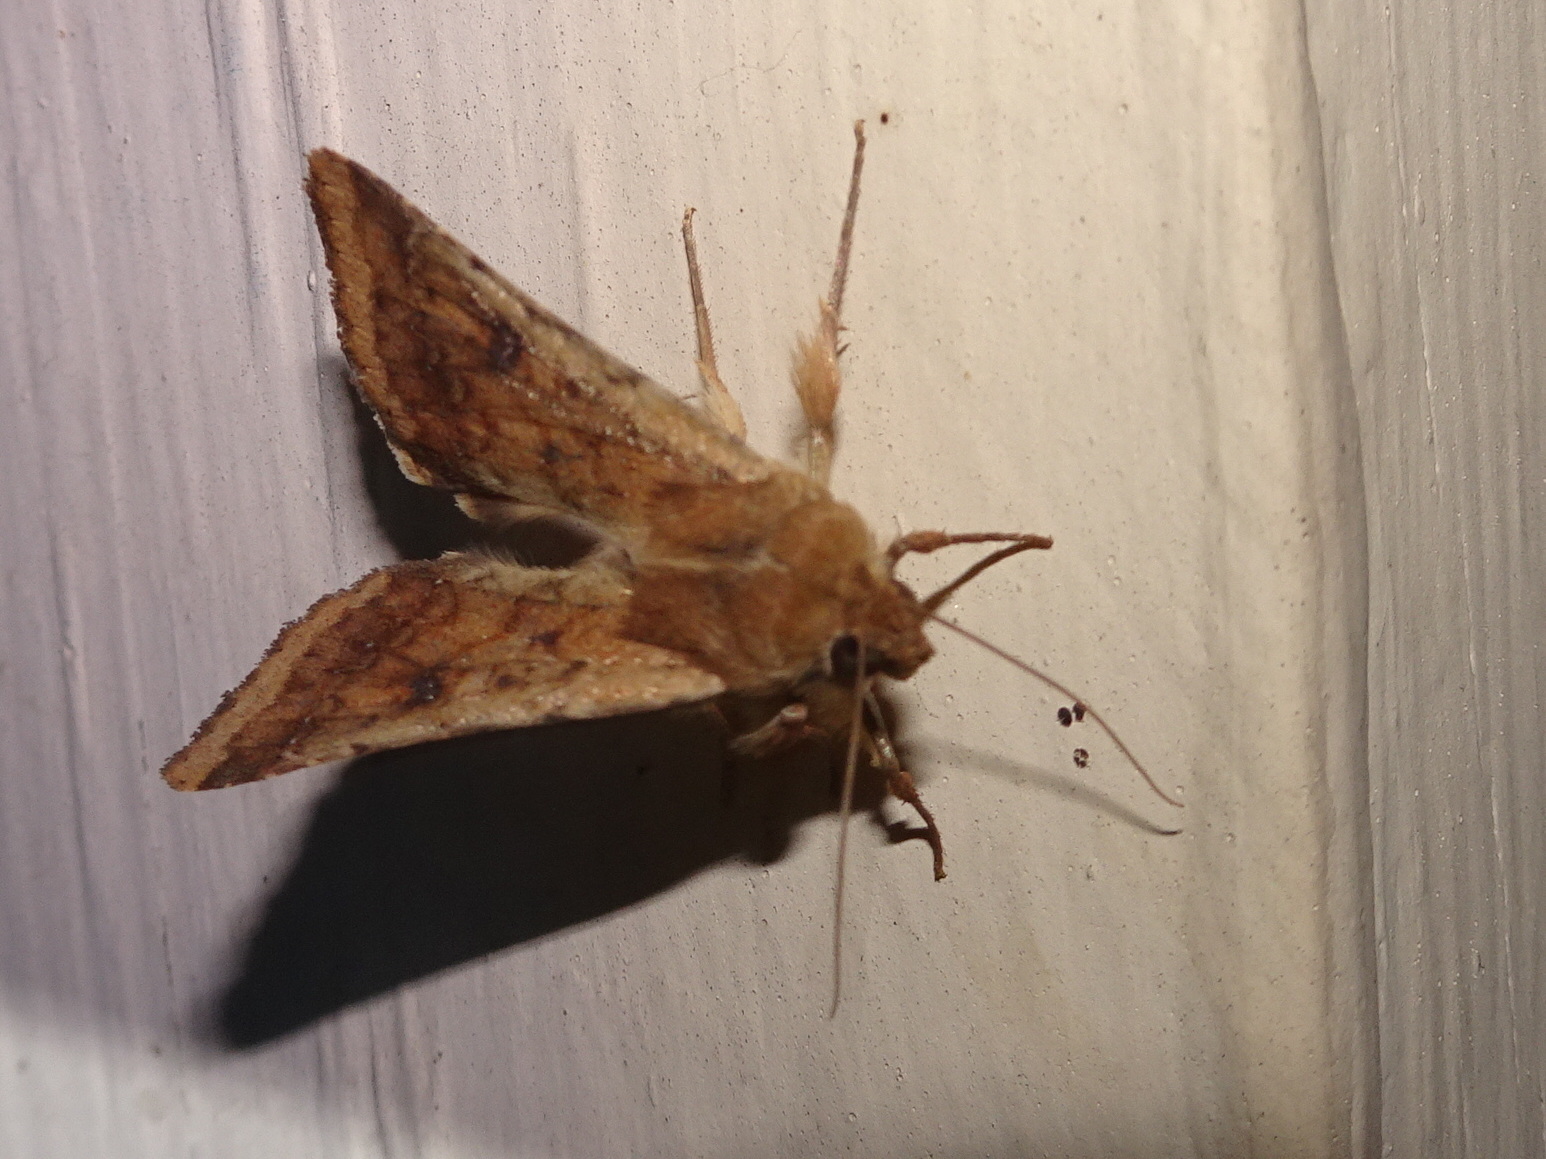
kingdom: Animalia
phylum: Arthropoda
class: Insecta
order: Lepidoptera
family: Noctuidae
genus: Helicoverpa
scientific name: Helicoverpa zea
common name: Bollworm
